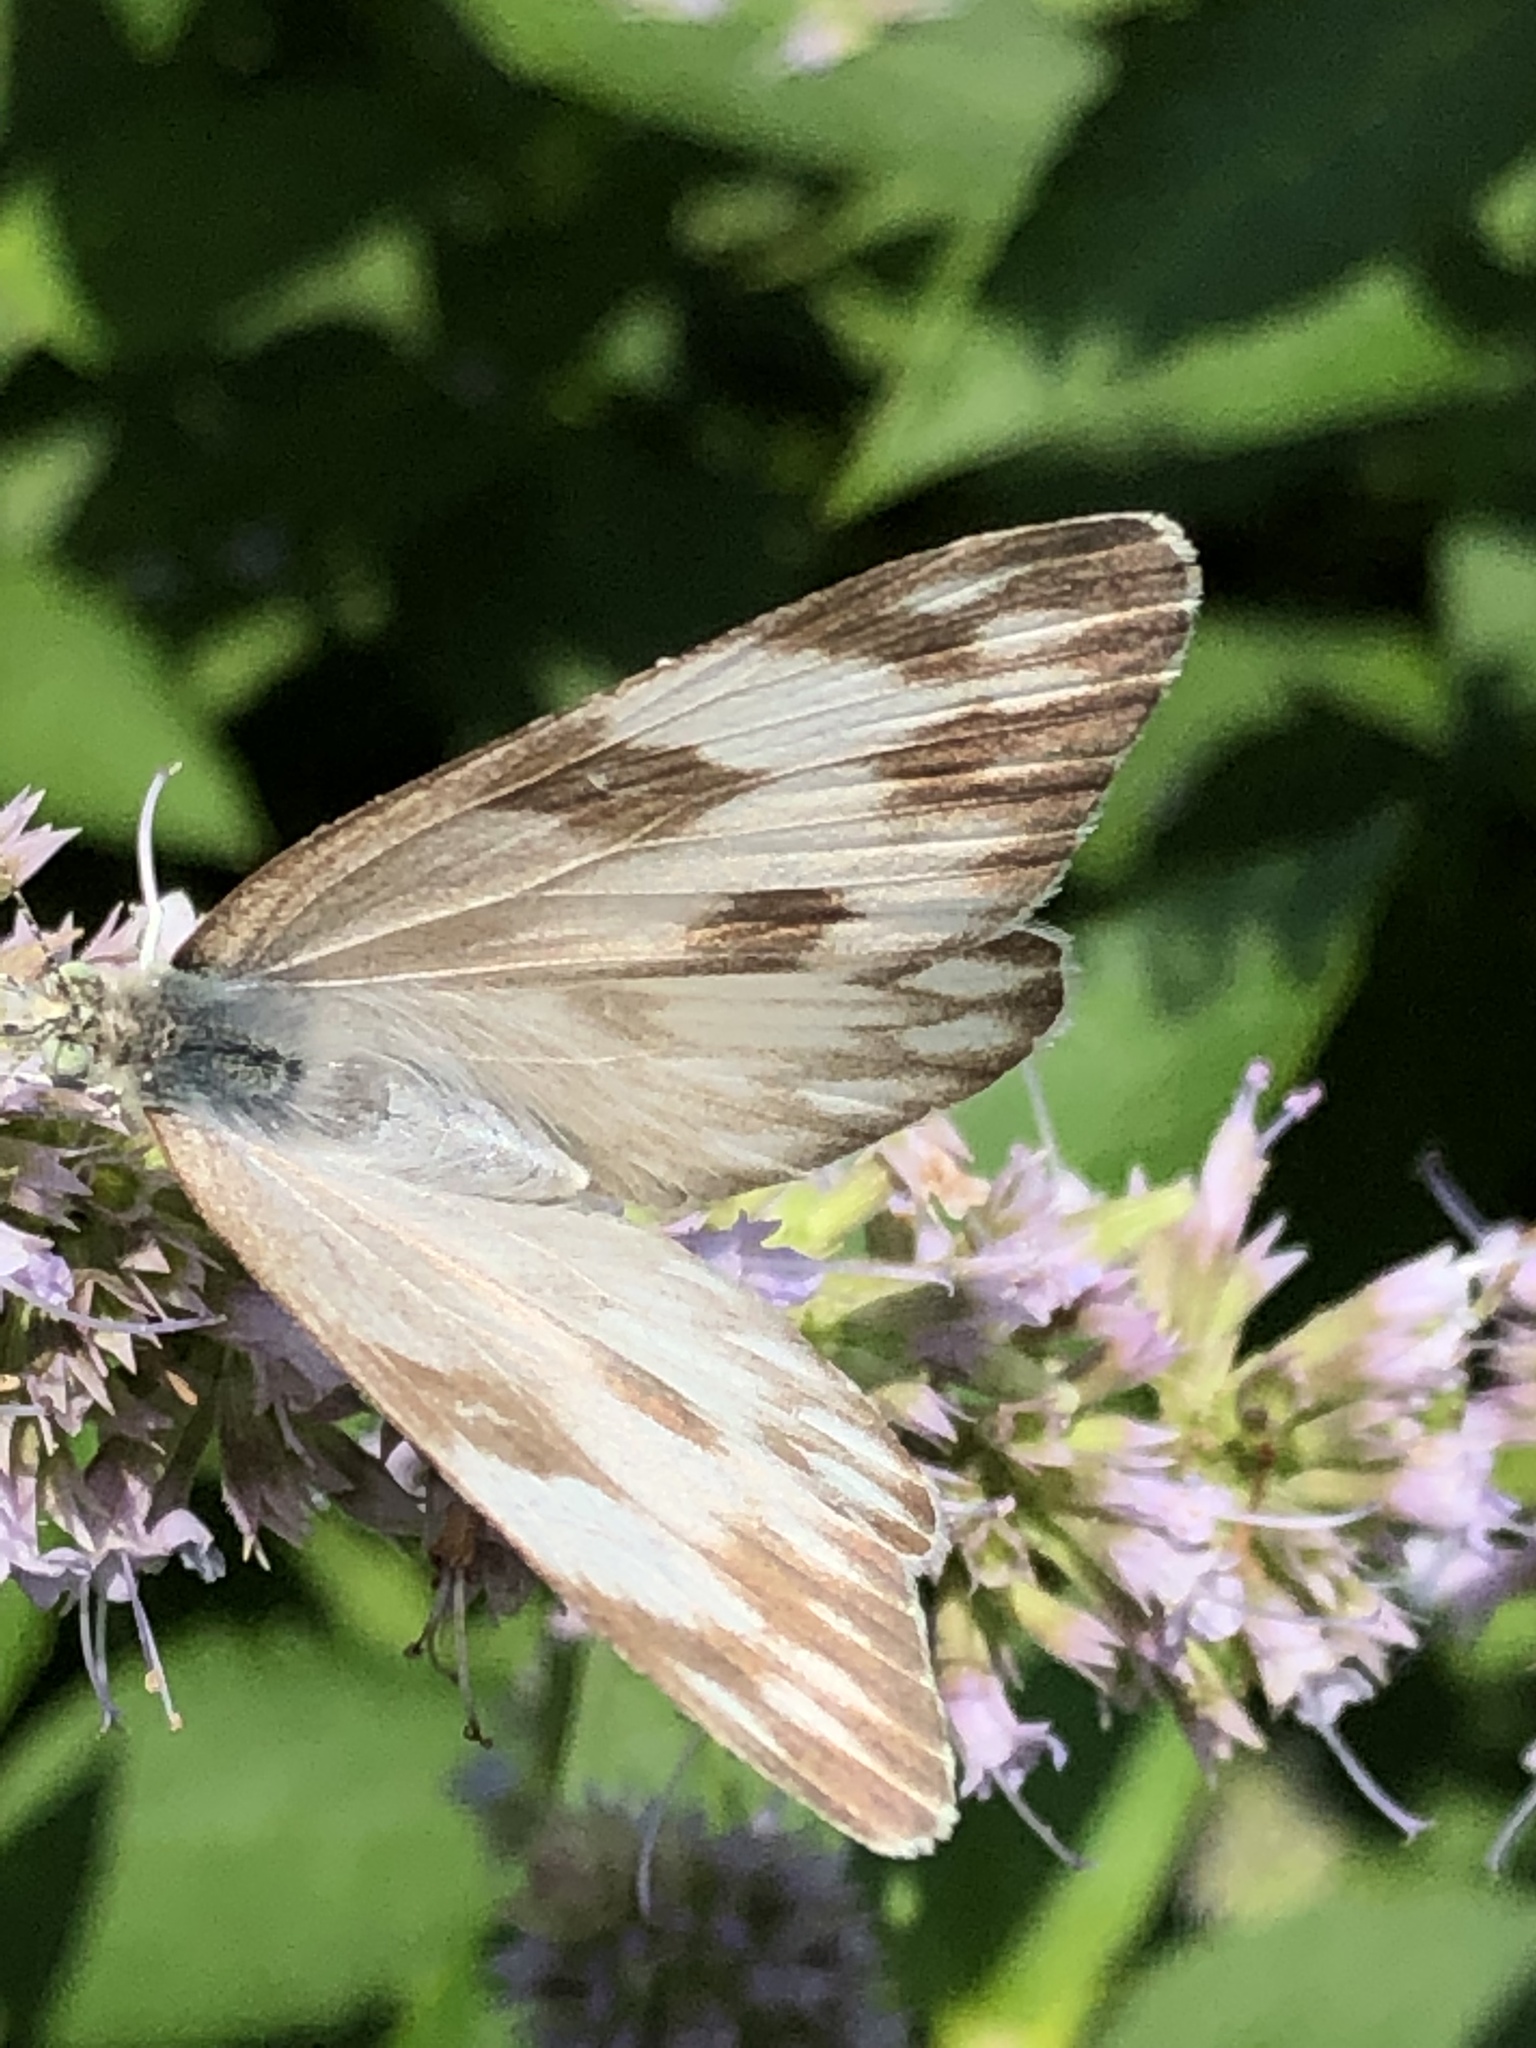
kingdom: Animalia
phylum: Arthropoda
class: Insecta
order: Lepidoptera
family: Pieridae
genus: Pontia
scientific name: Pontia protodice
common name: Checkered white
